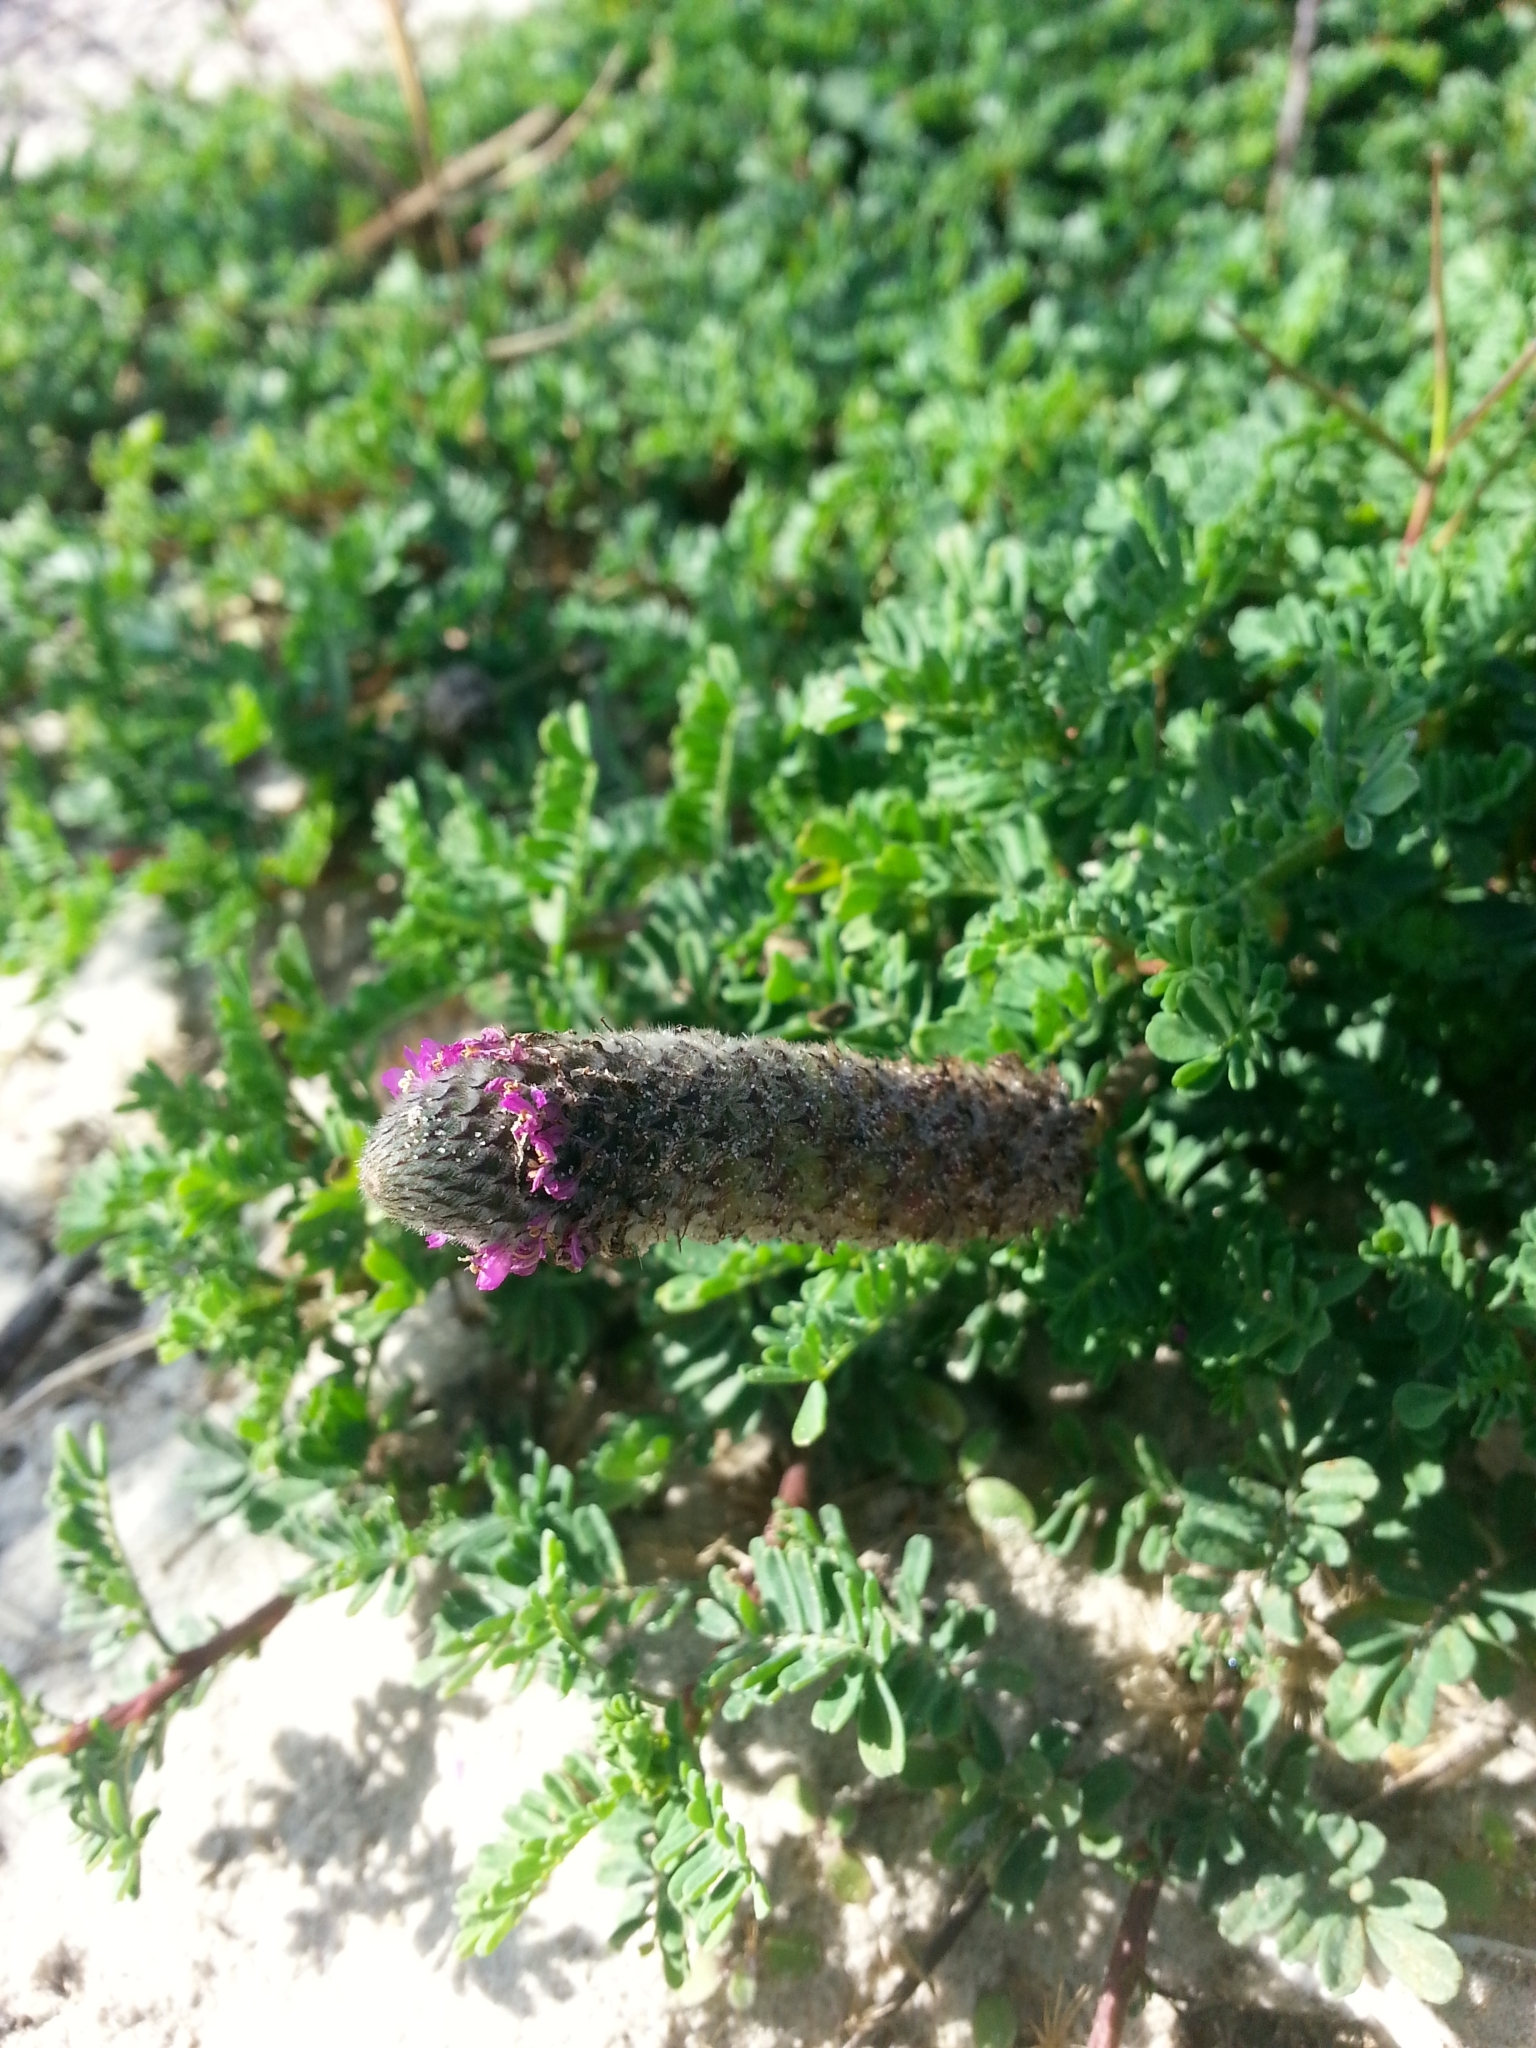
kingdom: Plantae
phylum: Tracheophyta
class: Magnoliopsida
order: Fabales
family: Fabaceae
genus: Dalea
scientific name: Dalea emarginata
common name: Wedgeleaf prairie clover
